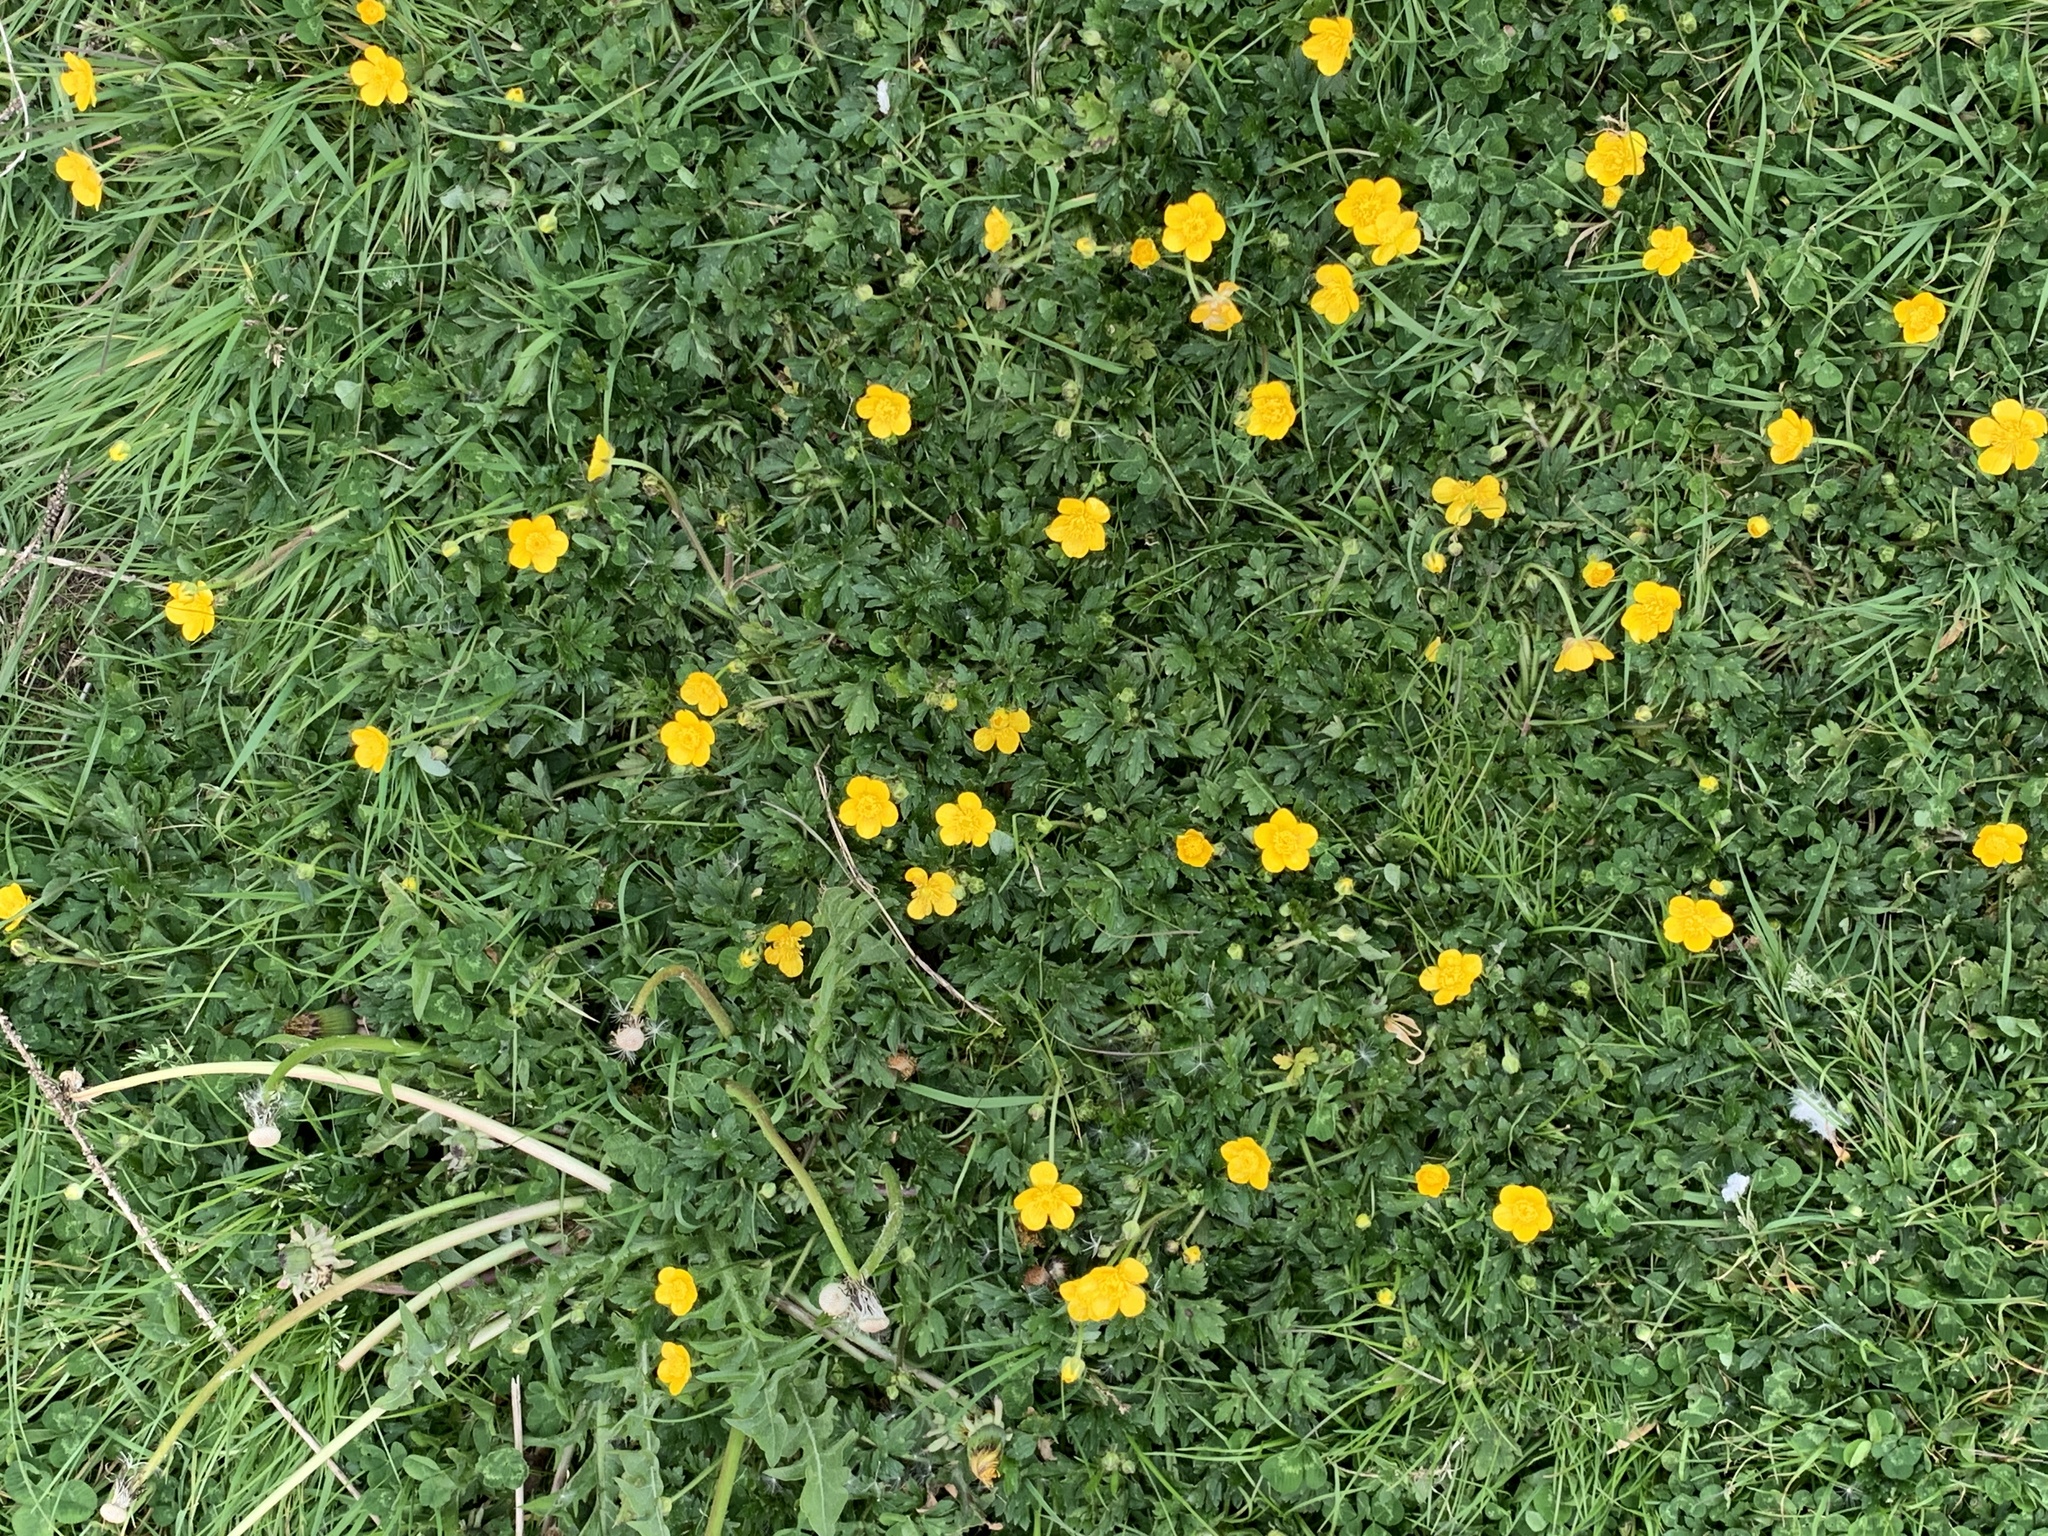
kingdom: Plantae
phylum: Tracheophyta
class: Magnoliopsida
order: Ranunculales
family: Ranunculaceae
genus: Ranunculus
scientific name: Ranunculus repens
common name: Creeping buttercup
